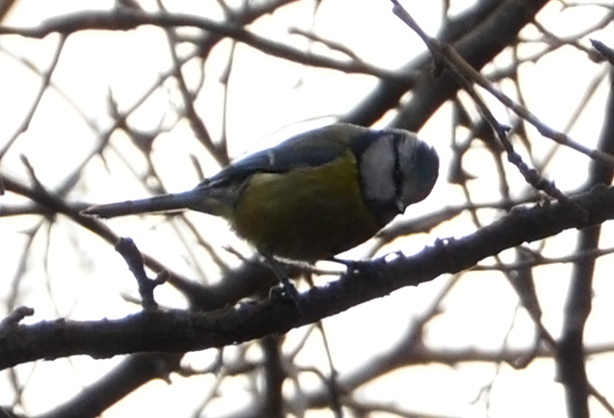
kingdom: Animalia
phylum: Chordata
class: Aves
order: Passeriformes
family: Paridae
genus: Cyanistes
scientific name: Cyanistes caeruleus
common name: Eurasian blue tit
